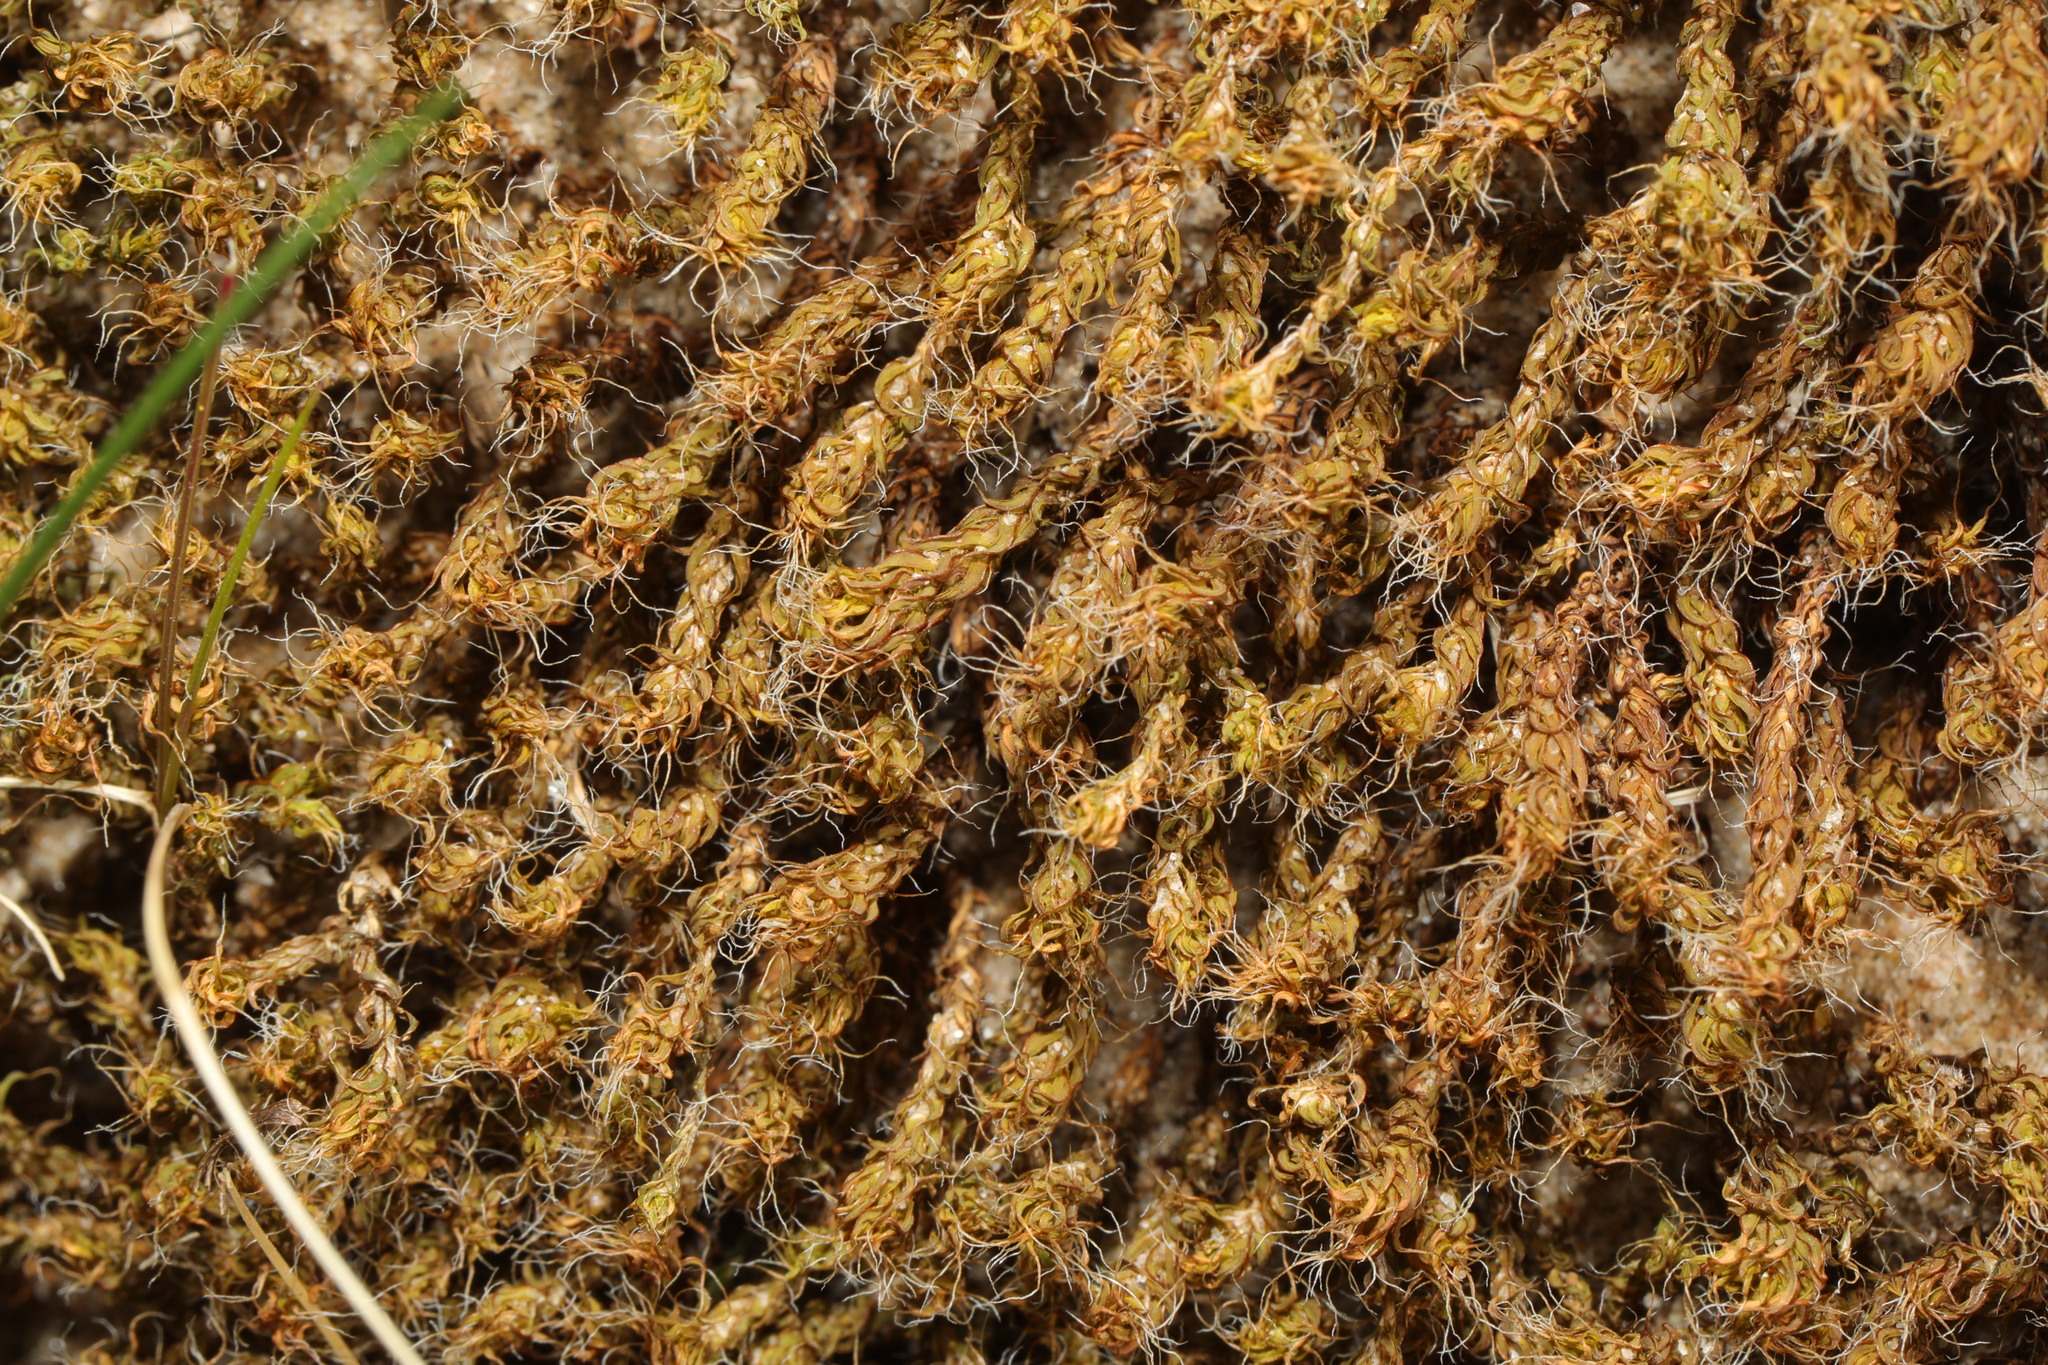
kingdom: Plantae
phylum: Bryophyta
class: Bryopsida
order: Pottiales
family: Pottiaceae
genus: Syntrichia
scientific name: Syntrichia ruralis
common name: Sidewalk screw moss
